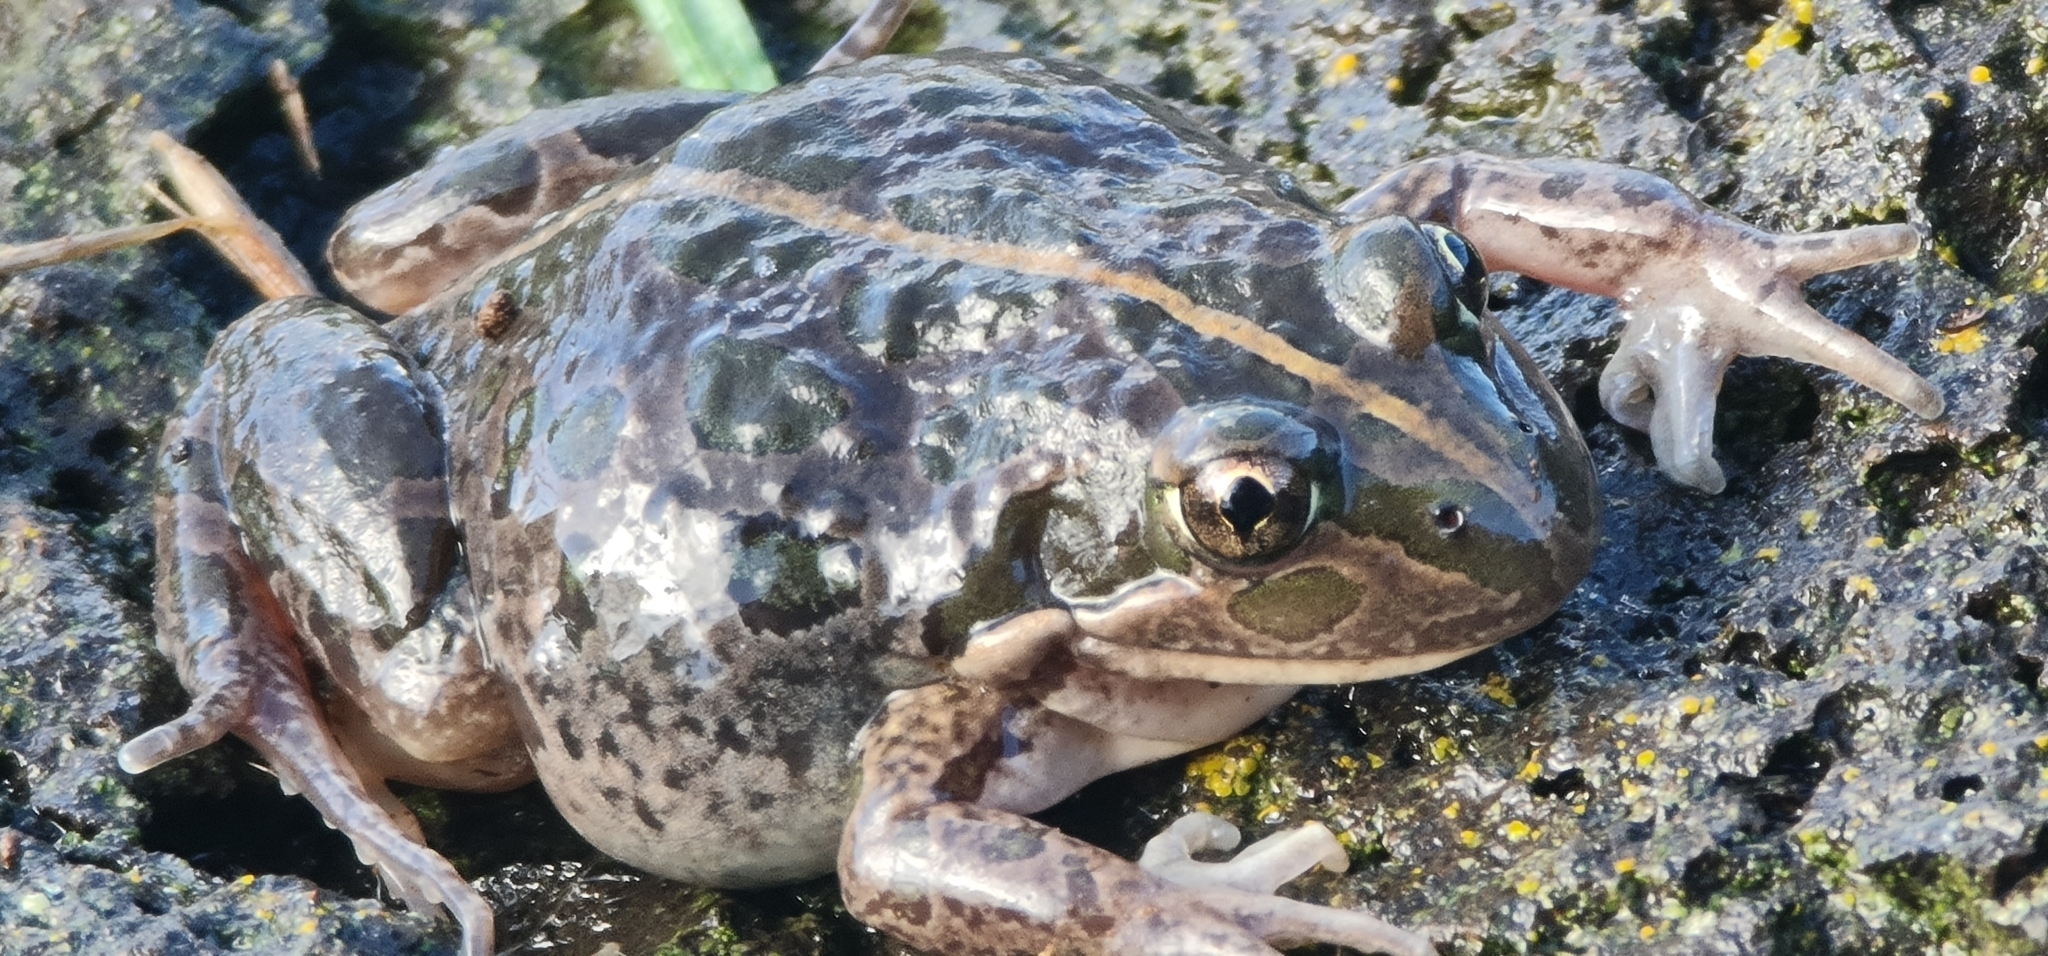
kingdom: Animalia
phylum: Chordata
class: Amphibia
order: Anura
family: Limnodynastidae
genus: Limnodynastes
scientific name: Limnodynastes tasmaniensis
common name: Spotted marsh frog
